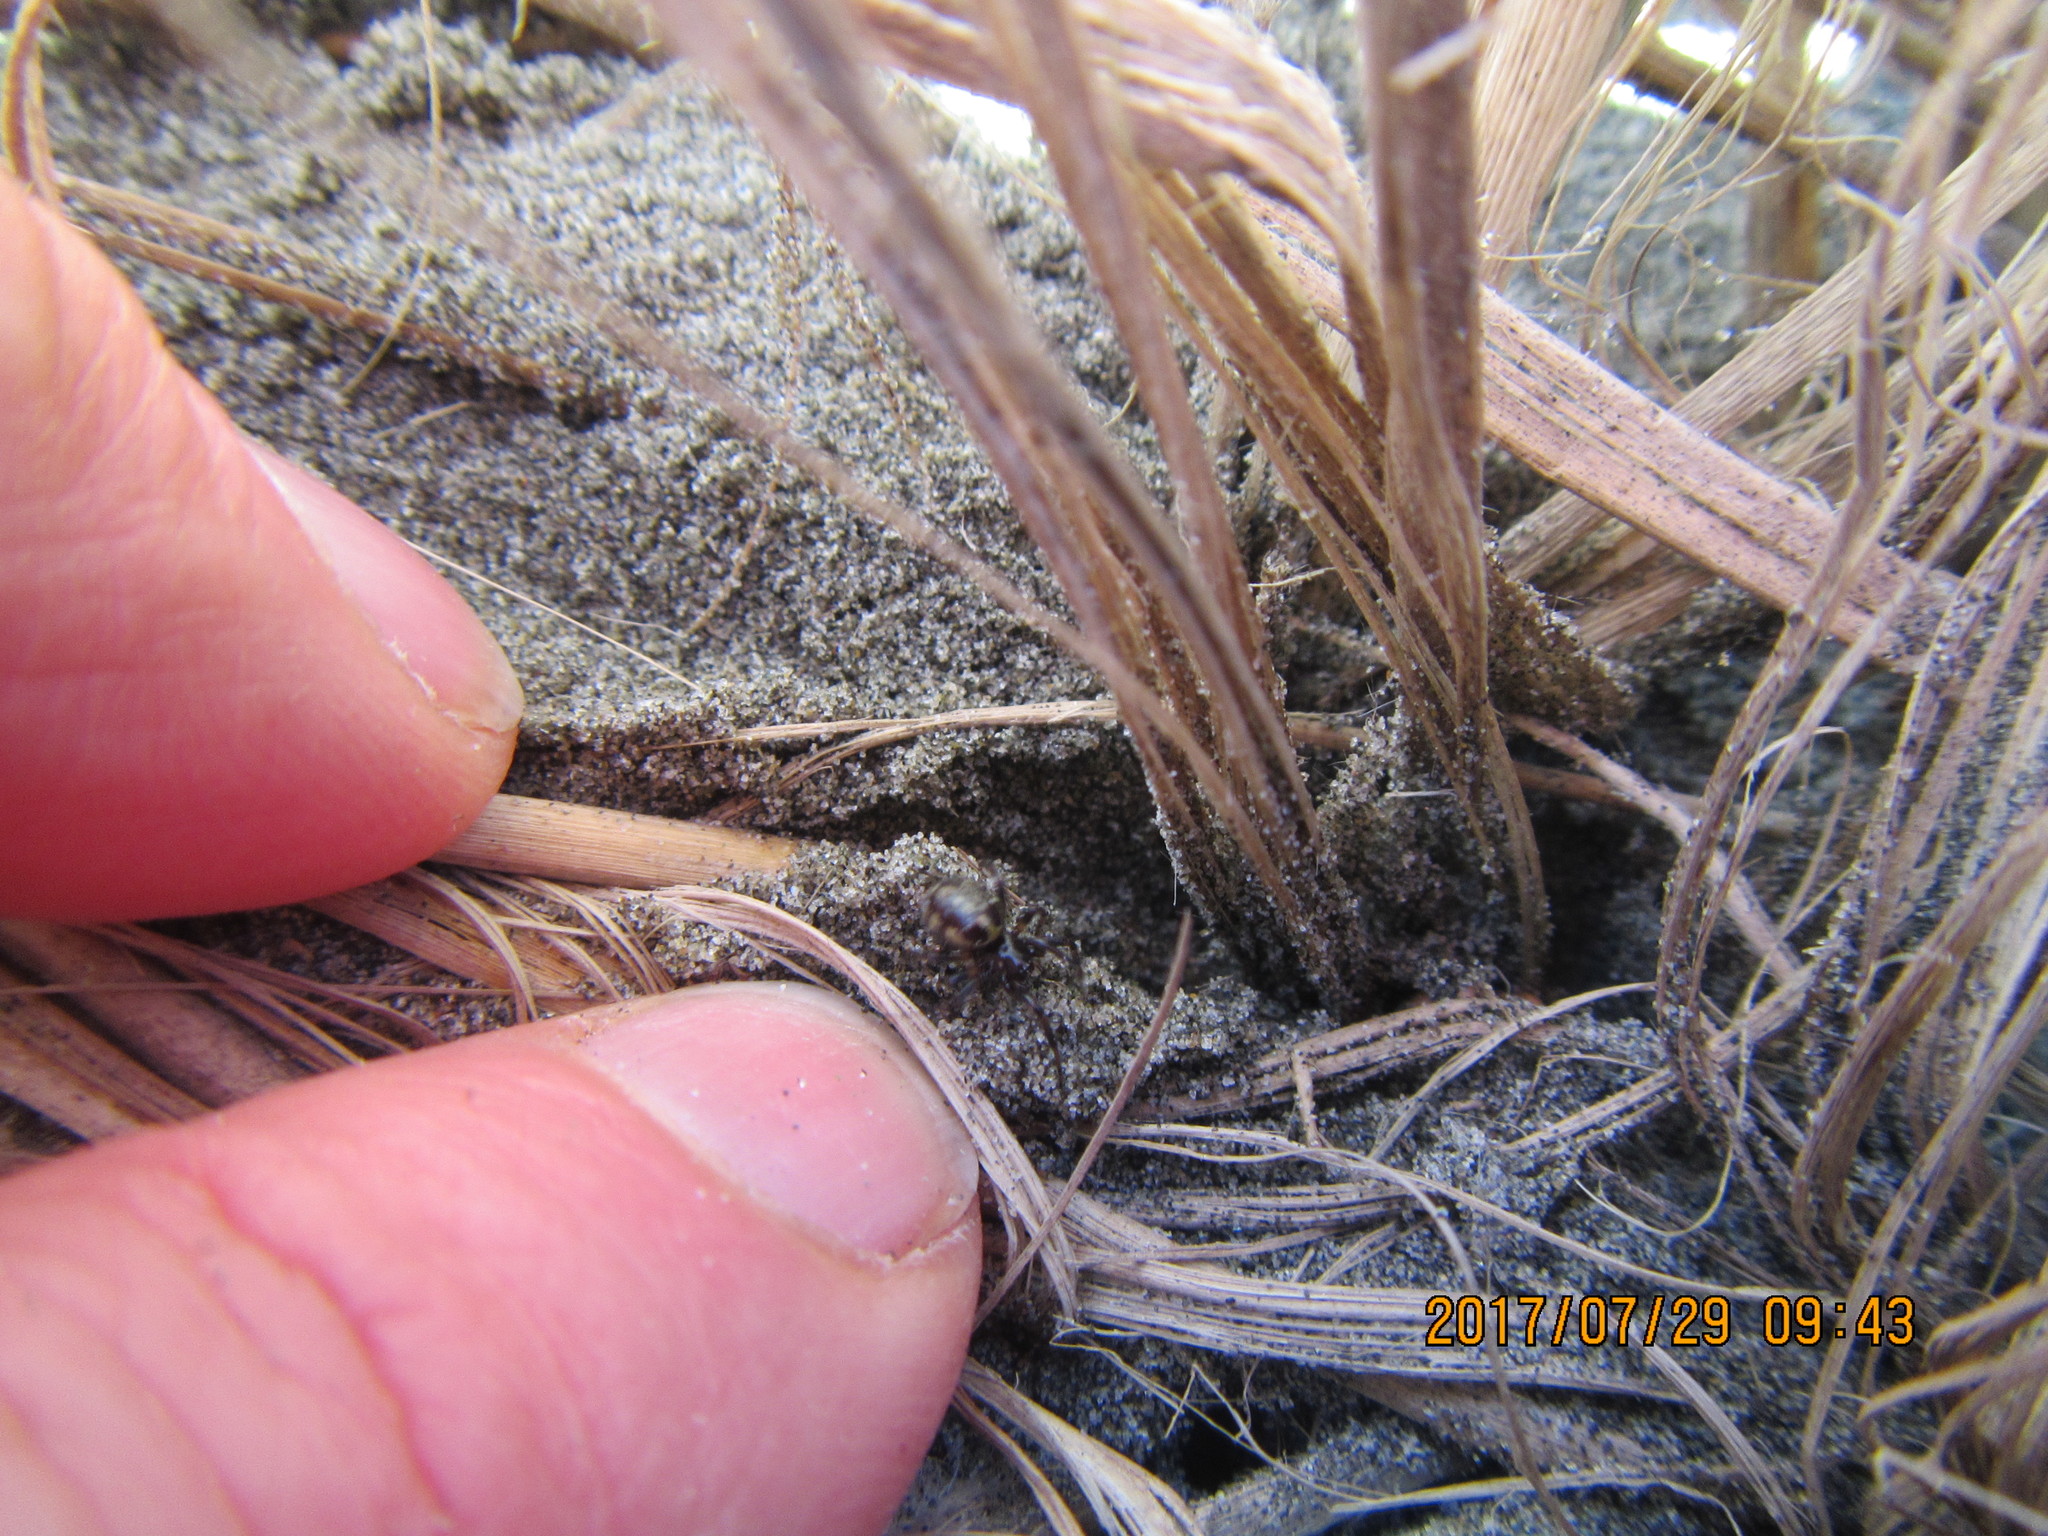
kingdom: Animalia
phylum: Arthropoda
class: Arachnida
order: Araneae
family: Theridiidae
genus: Steatoda
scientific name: Steatoda lepida
